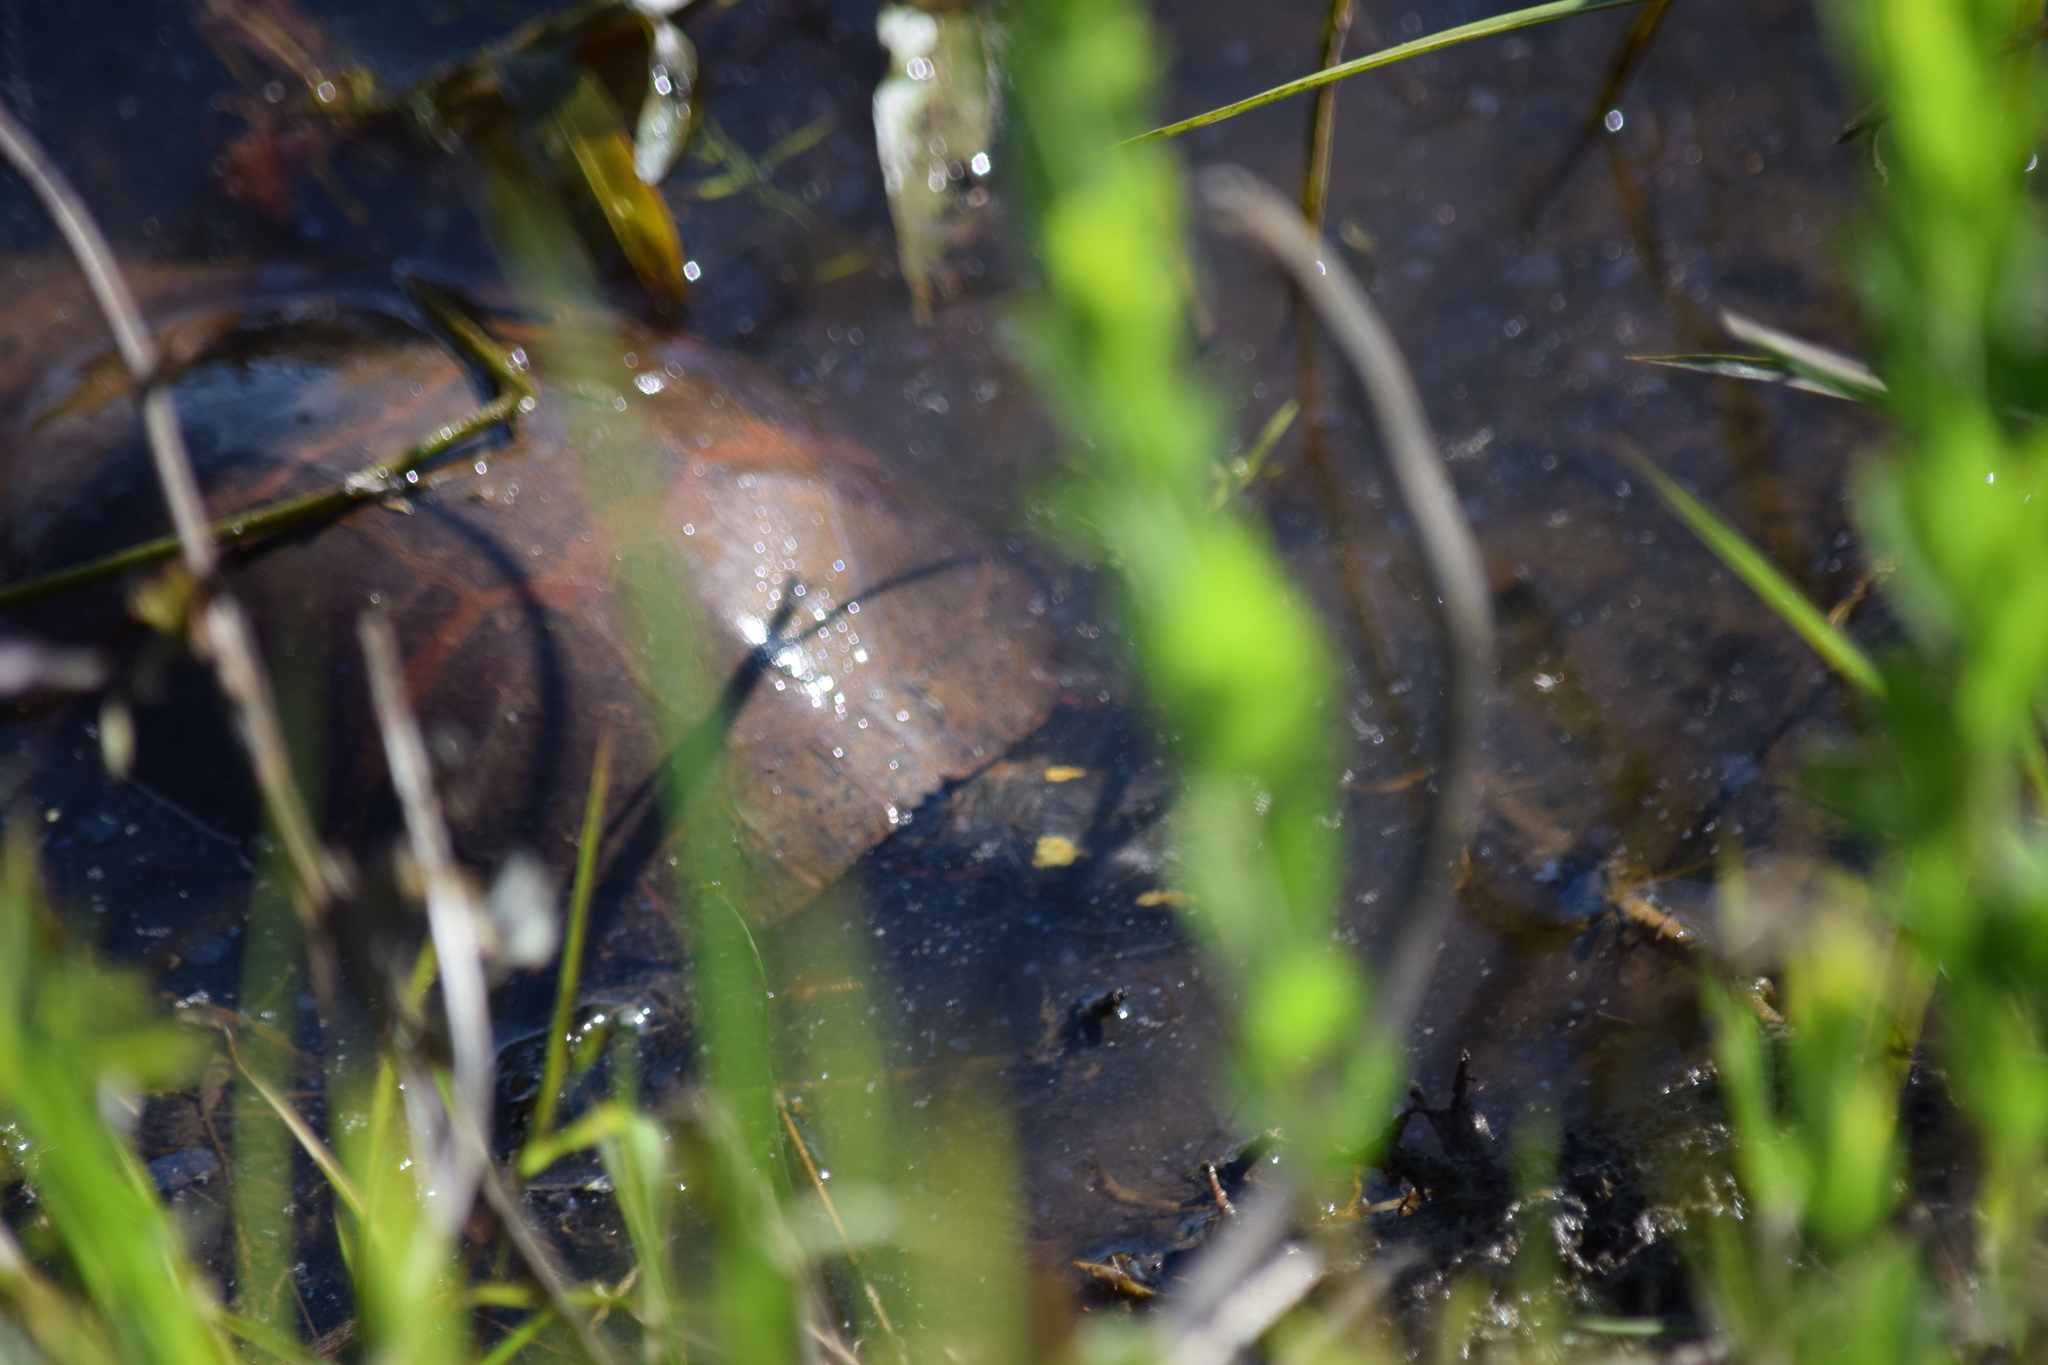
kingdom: Animalia
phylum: Chordata
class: Testudines
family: Emydidae
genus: Chrysemys
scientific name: Chrysemys picta
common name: Painted turtle
